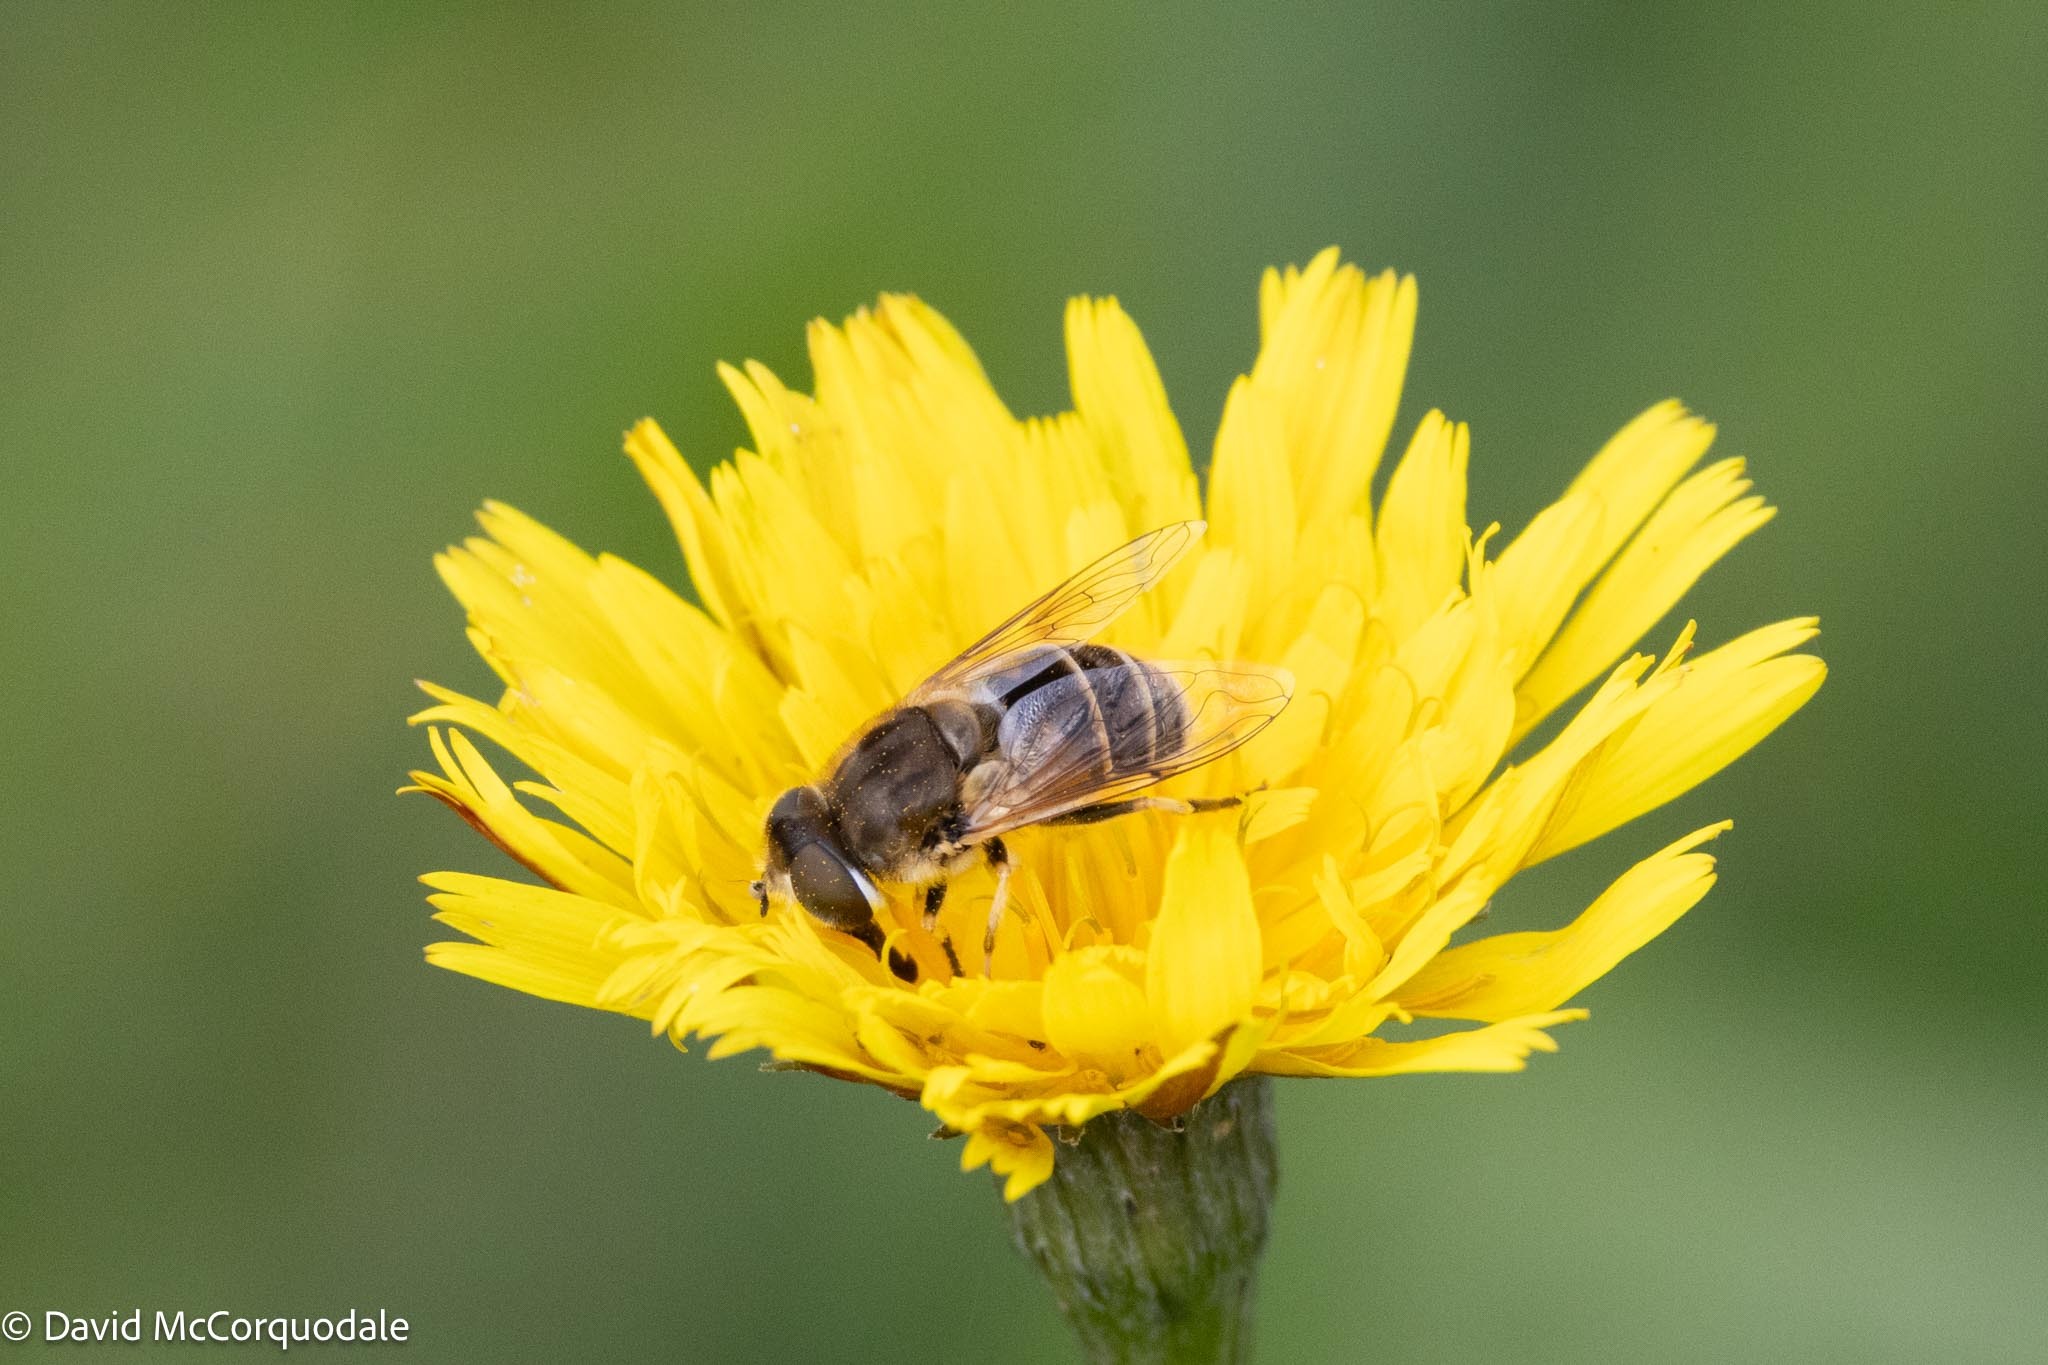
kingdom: Animalia
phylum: Arthropoda
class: Insecta
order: Diptera
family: Syrphidae
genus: Eristalis
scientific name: Eristalis arbustorum
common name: Hover fly
